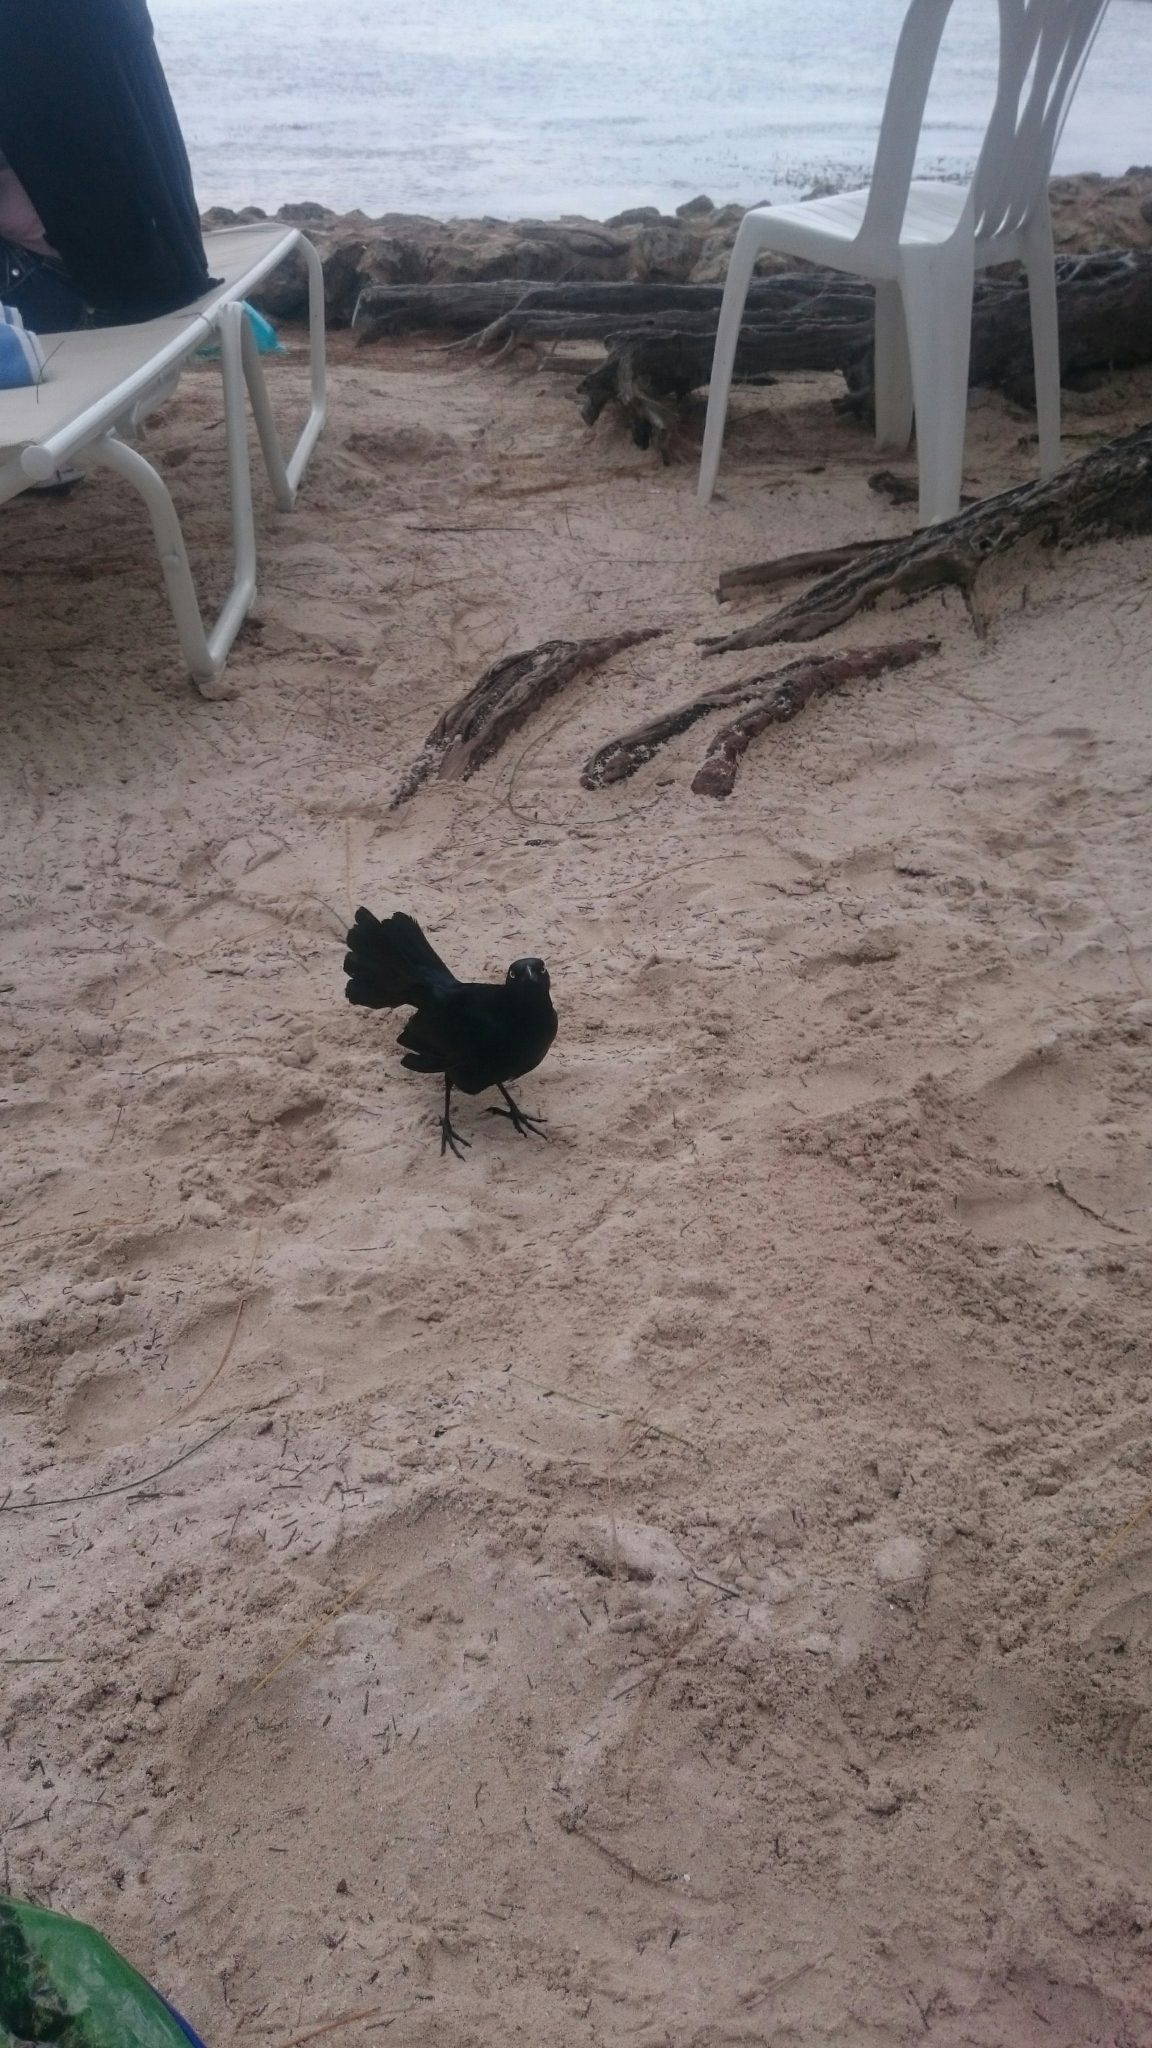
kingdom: Animalia
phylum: Chordata
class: Aves
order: Passeriformes
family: Icteridae
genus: Quiscalus
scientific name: Quiscalus niger
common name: Greater antillean grackle
